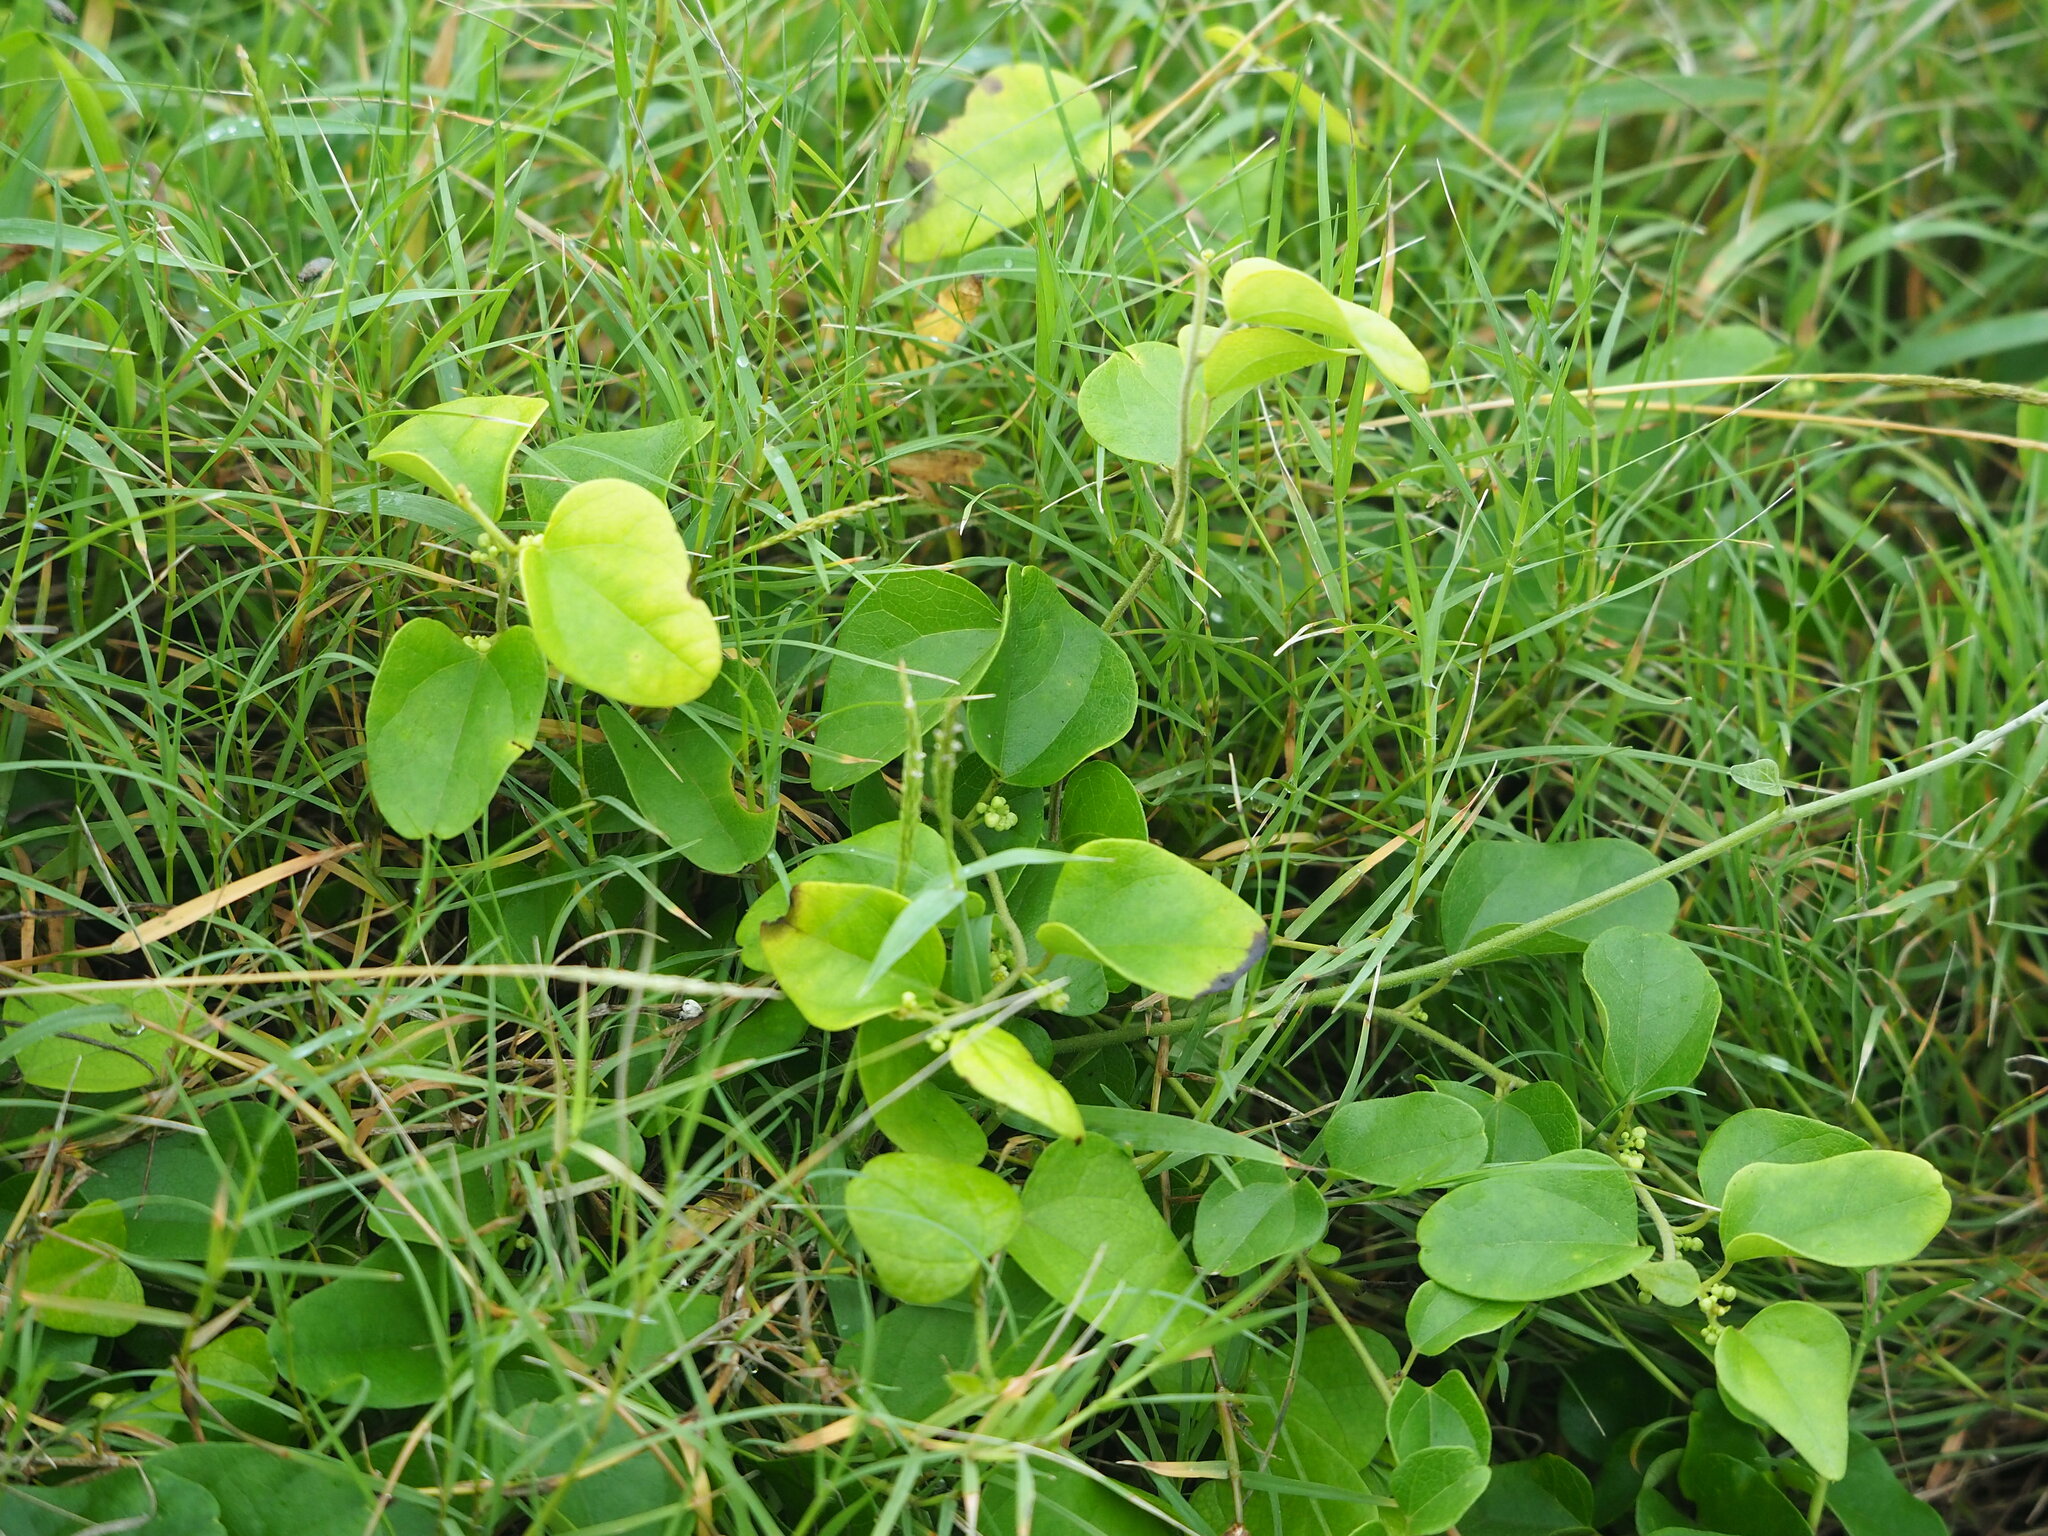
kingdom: Plantae
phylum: Tracheophyta
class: Magnoliopsida
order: Ranunculales
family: Menispermaceae
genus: Cocculus
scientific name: Cocculus orbiculatus
